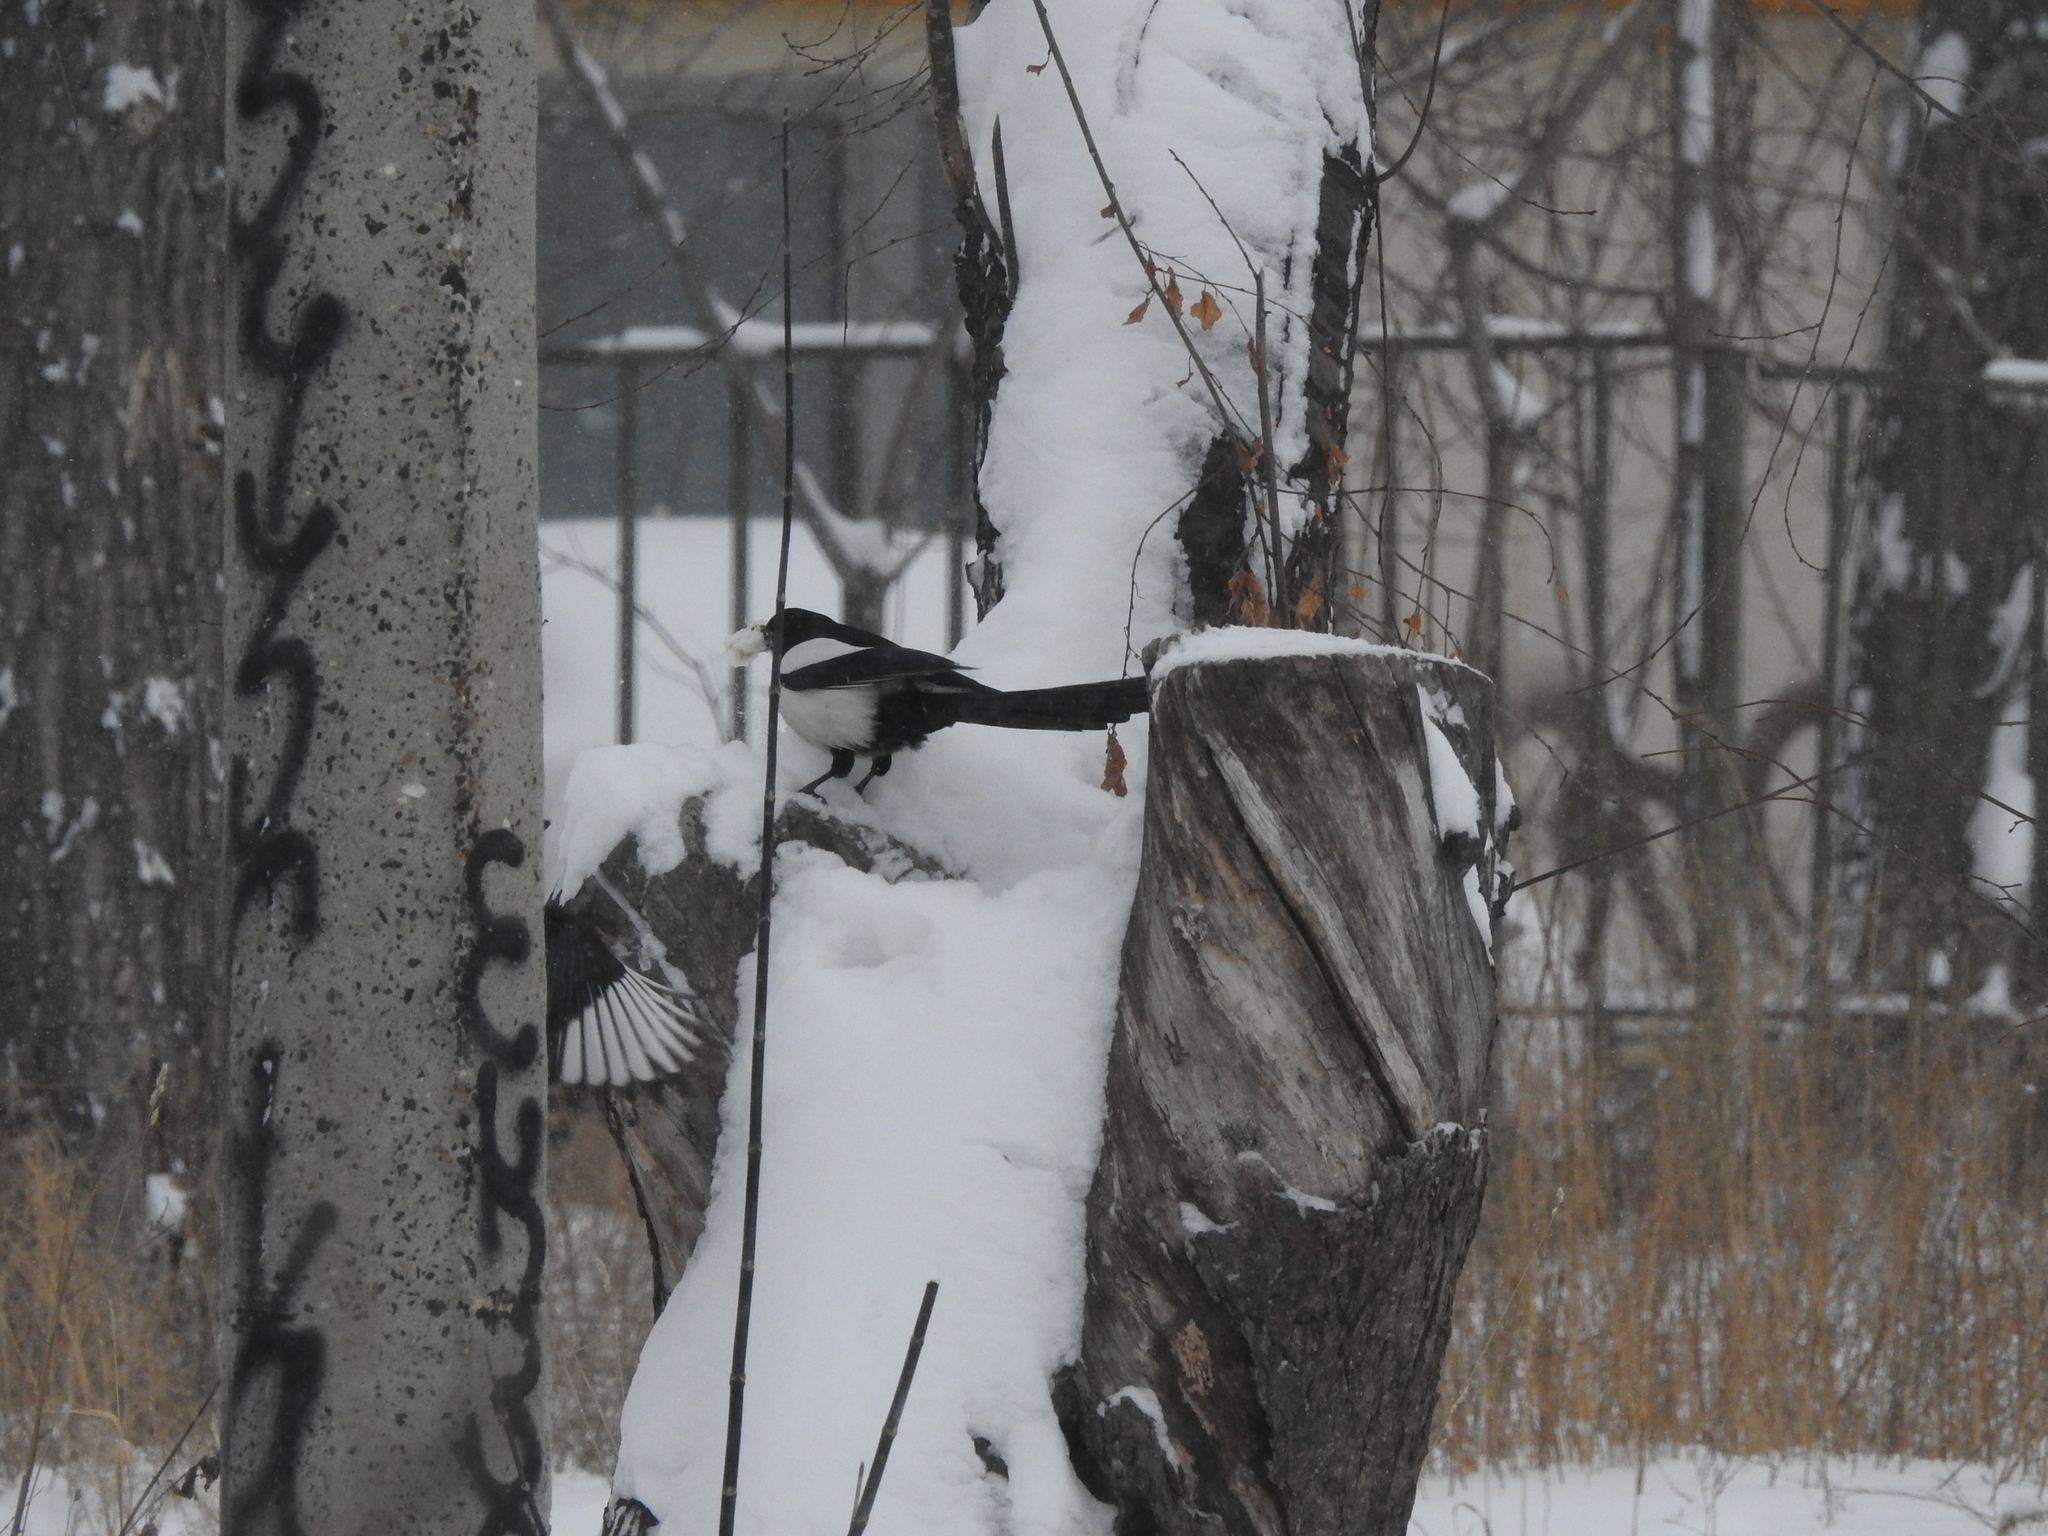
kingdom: Animalia
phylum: Chordata
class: Aves
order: Passeriformes
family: Corvidae
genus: Pica
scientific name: Pica pica
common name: Eurasian magpie
